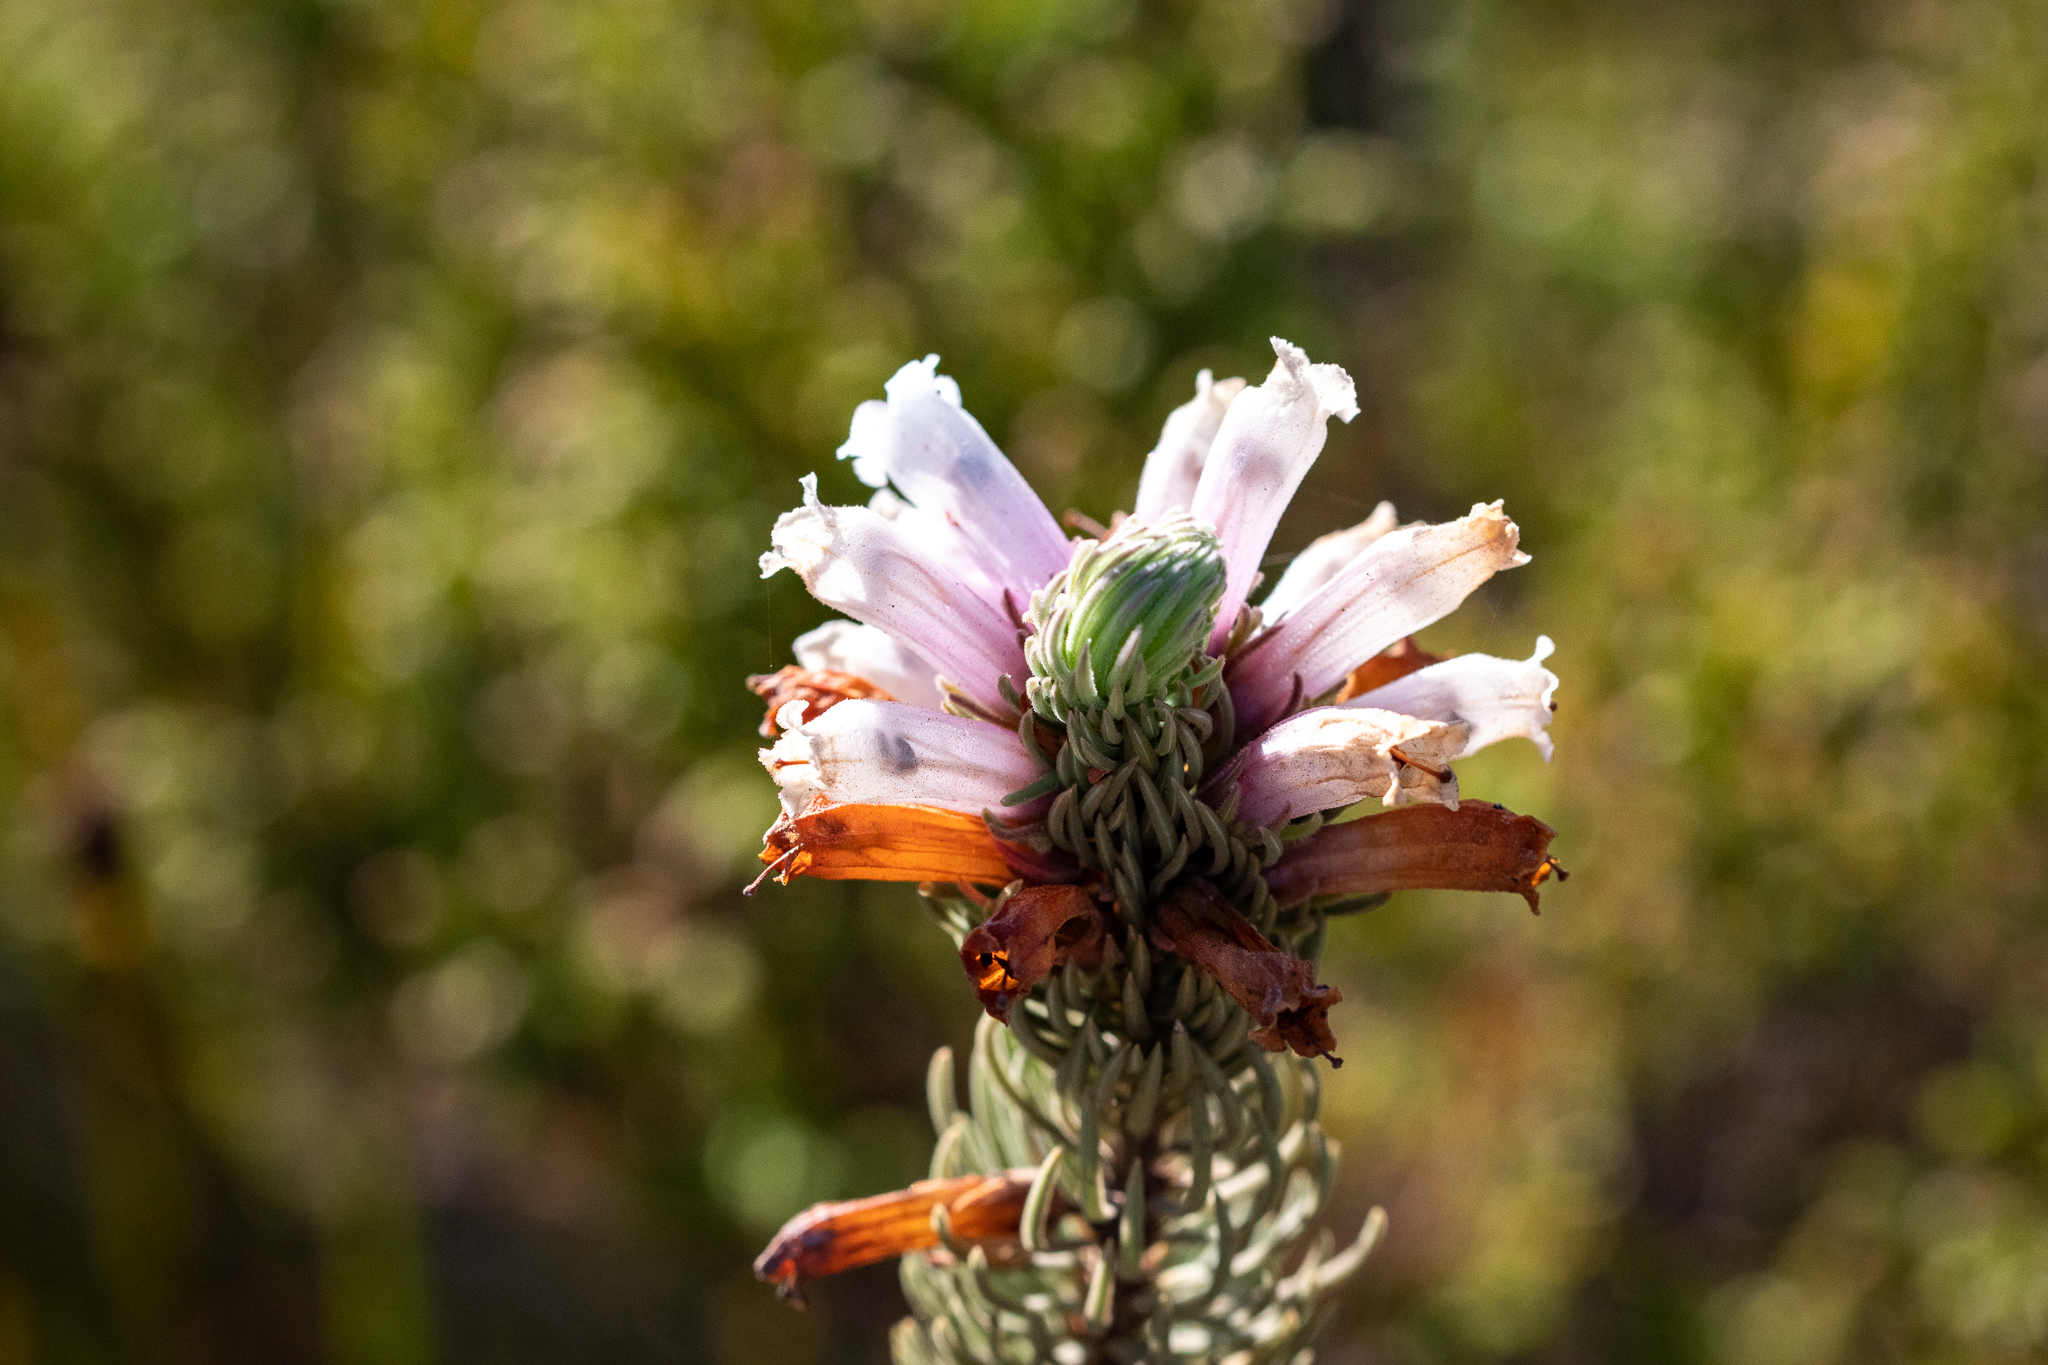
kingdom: Plantae
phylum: Tracheophyta
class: Magnoliopsida
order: Ericales
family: Ericaceae
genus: Erica
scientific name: Erica viscaria
